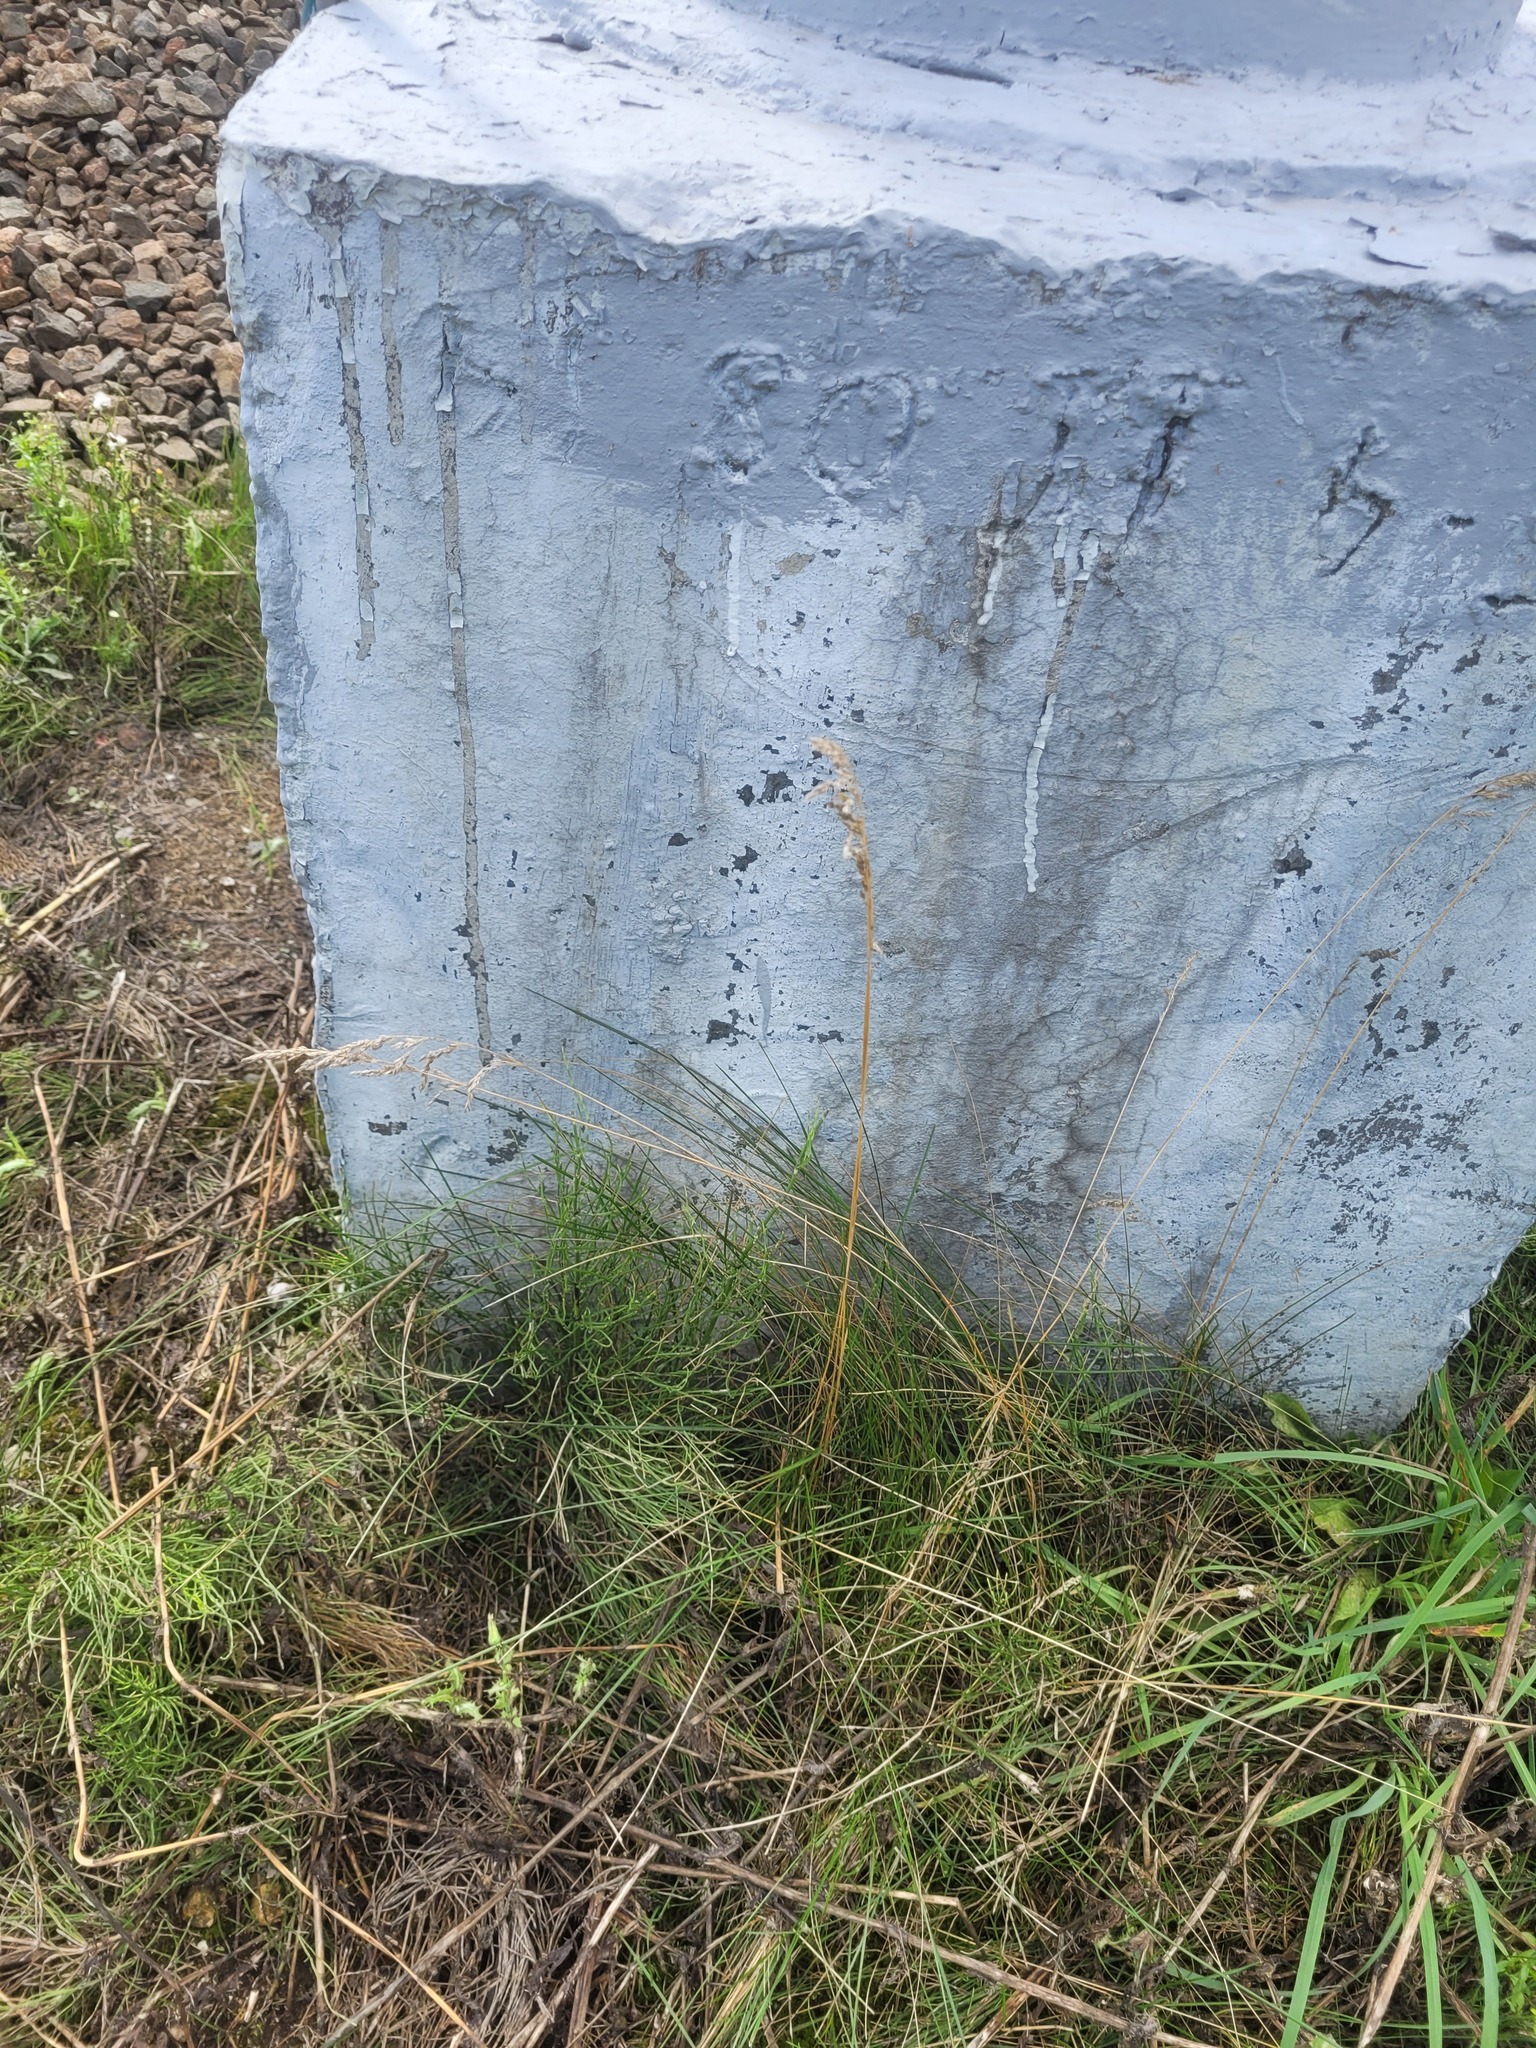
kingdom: Plantae
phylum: Tracheophyta
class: Liliopsida
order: Poales
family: Poaceae
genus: Poa
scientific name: Poa angustifolia
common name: Narrow-leaved meadow-grass
